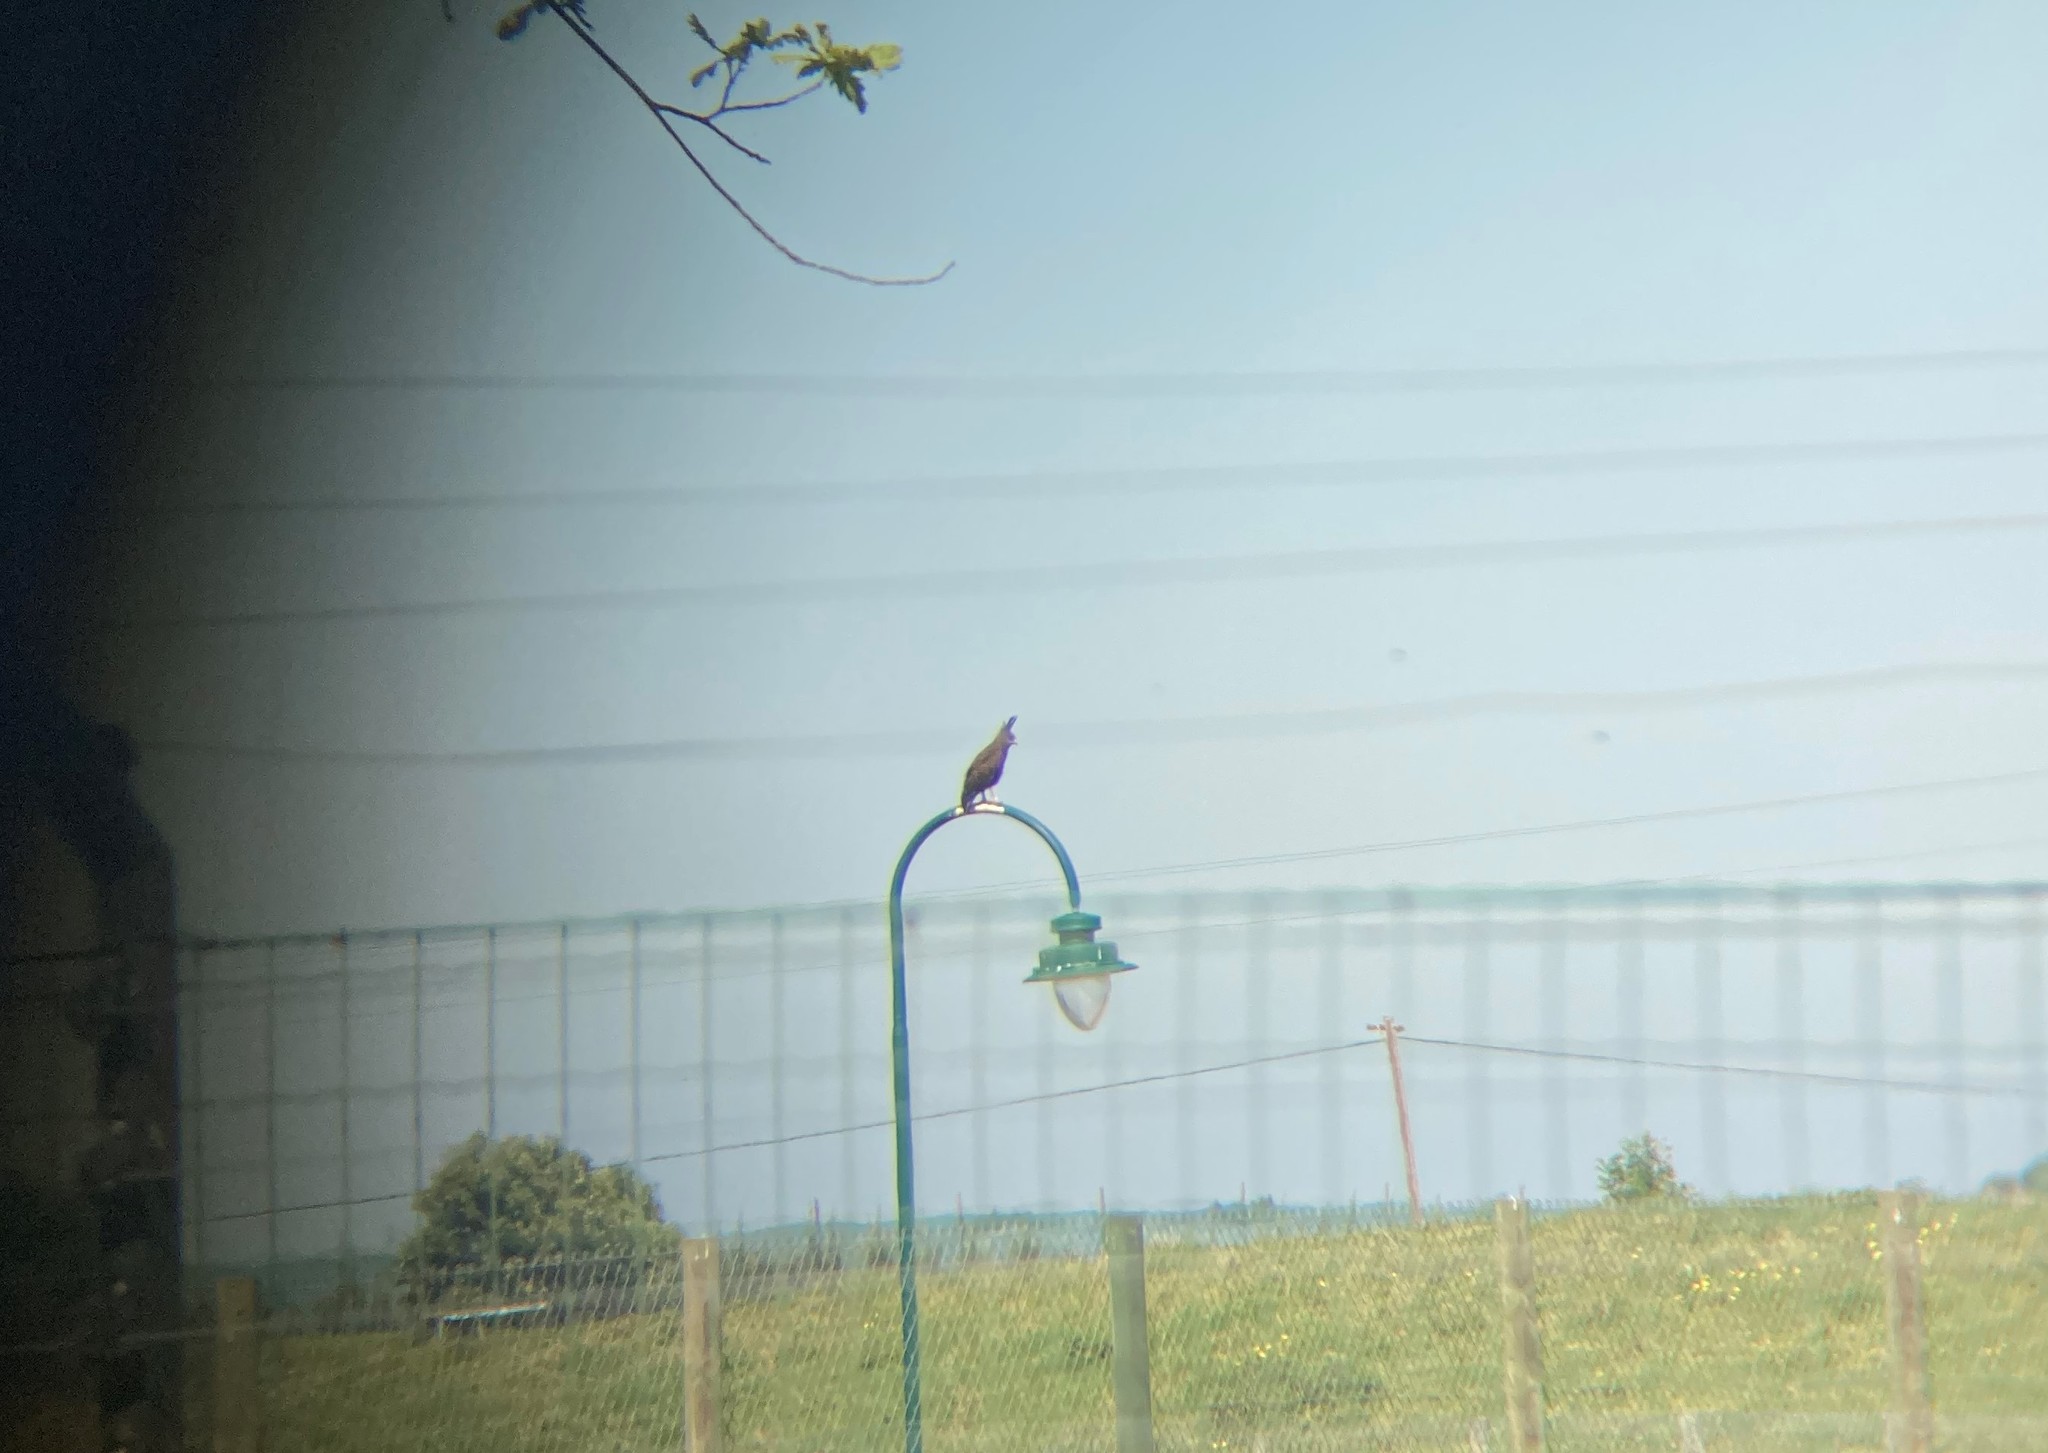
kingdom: Animalia
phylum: Chordata
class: Aves
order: Accipitriformes
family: Accipitridae
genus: Lophaetus
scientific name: Lophaetus occipitalis
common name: Long-crested eagle
